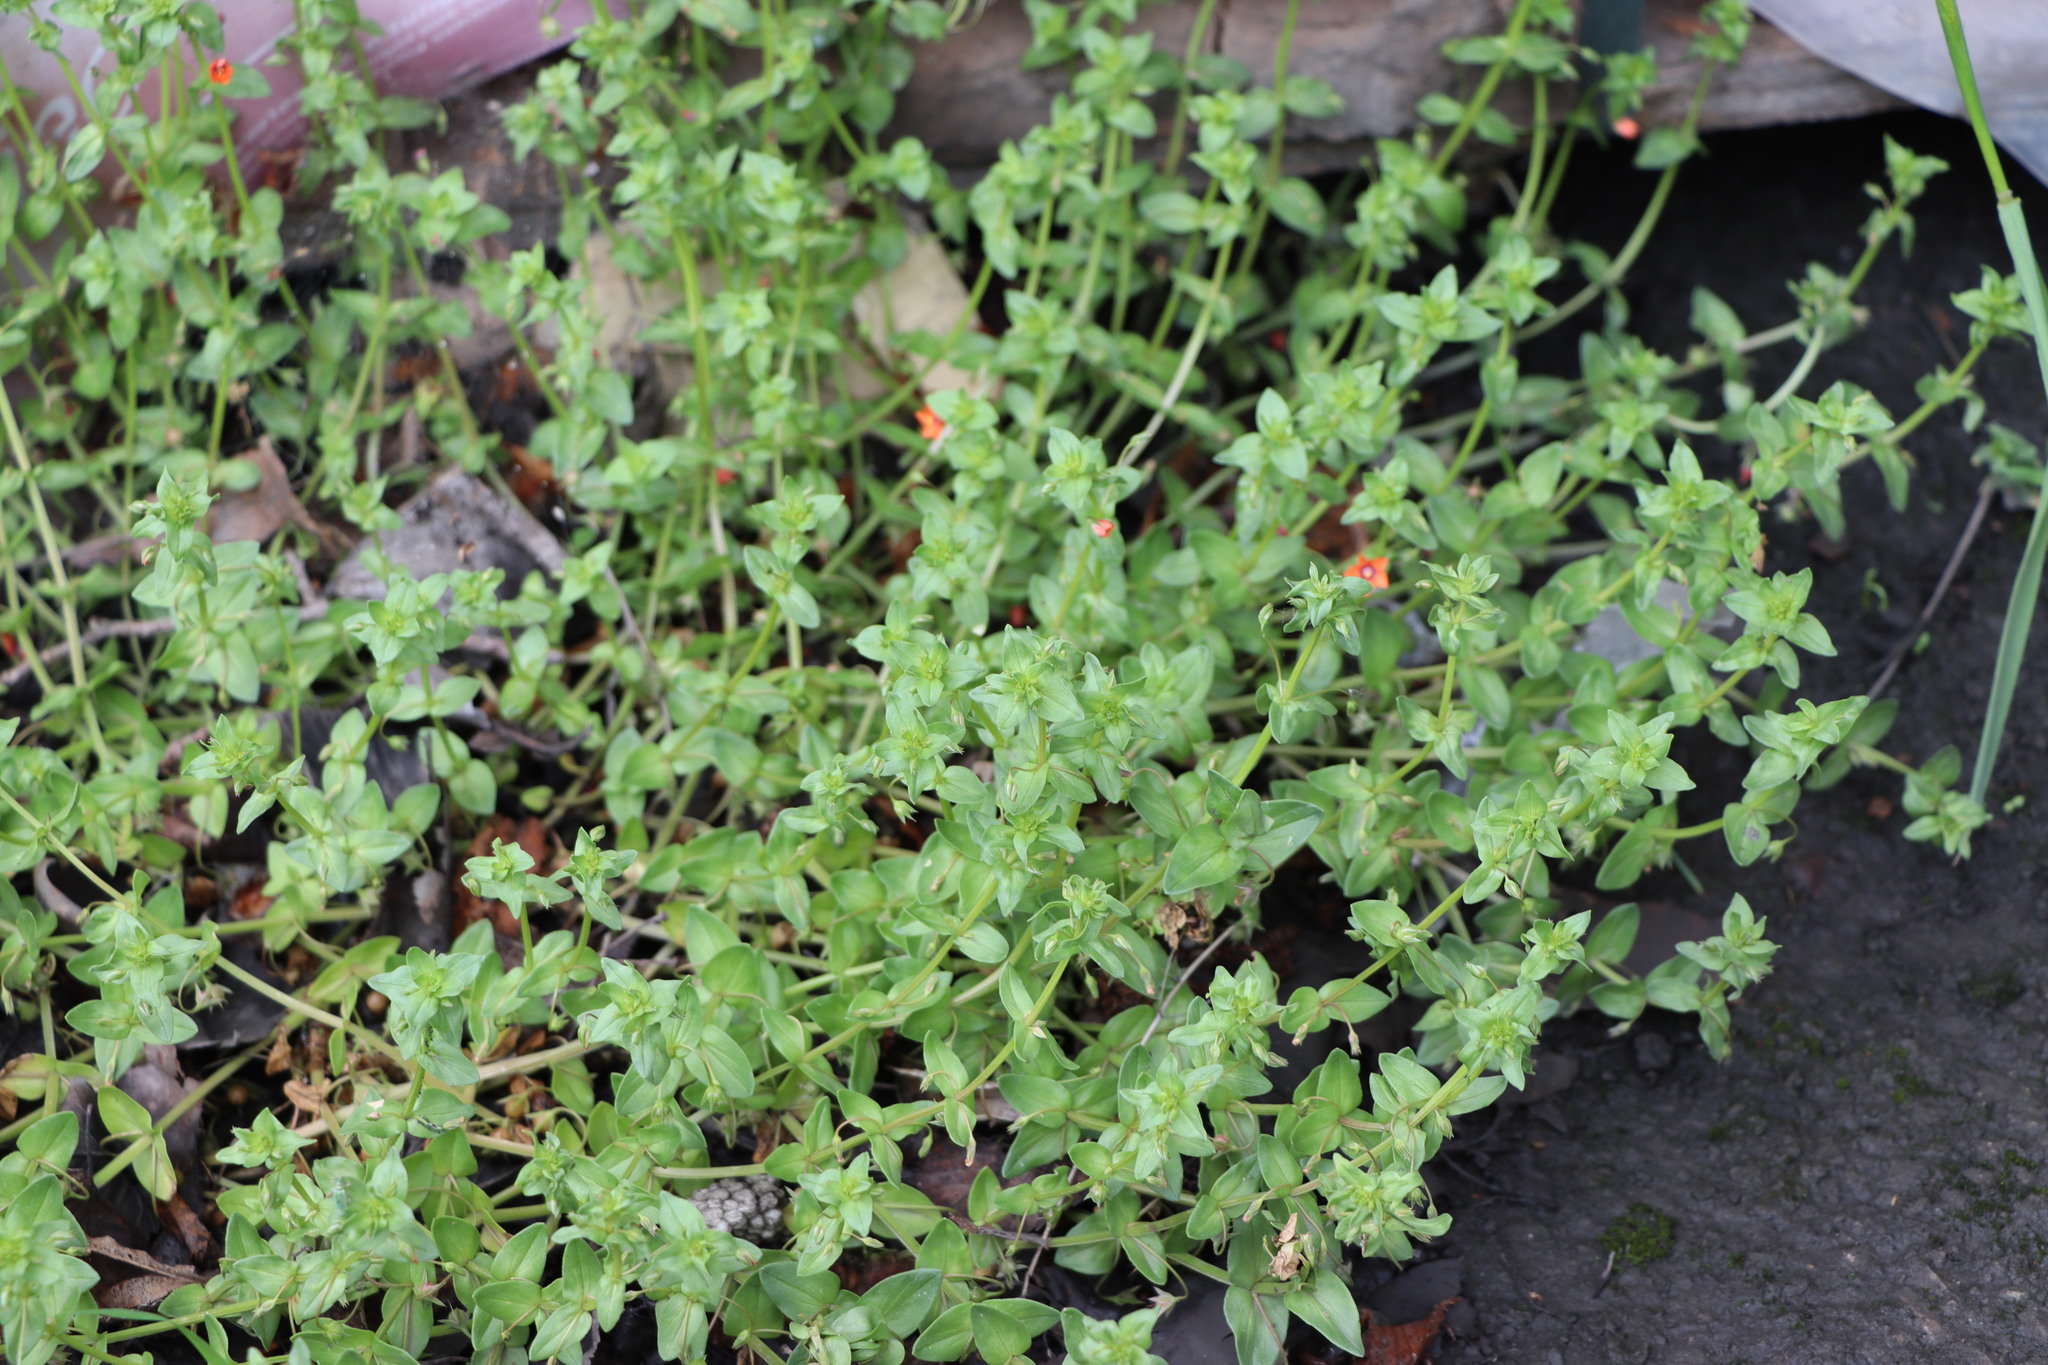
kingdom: Plantae
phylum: Tracheophyta
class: Magnoliopsida
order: Ericales
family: Primulaceae
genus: Lysimachia
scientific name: Lysimachia arvensis
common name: Scarlet pimpernel
